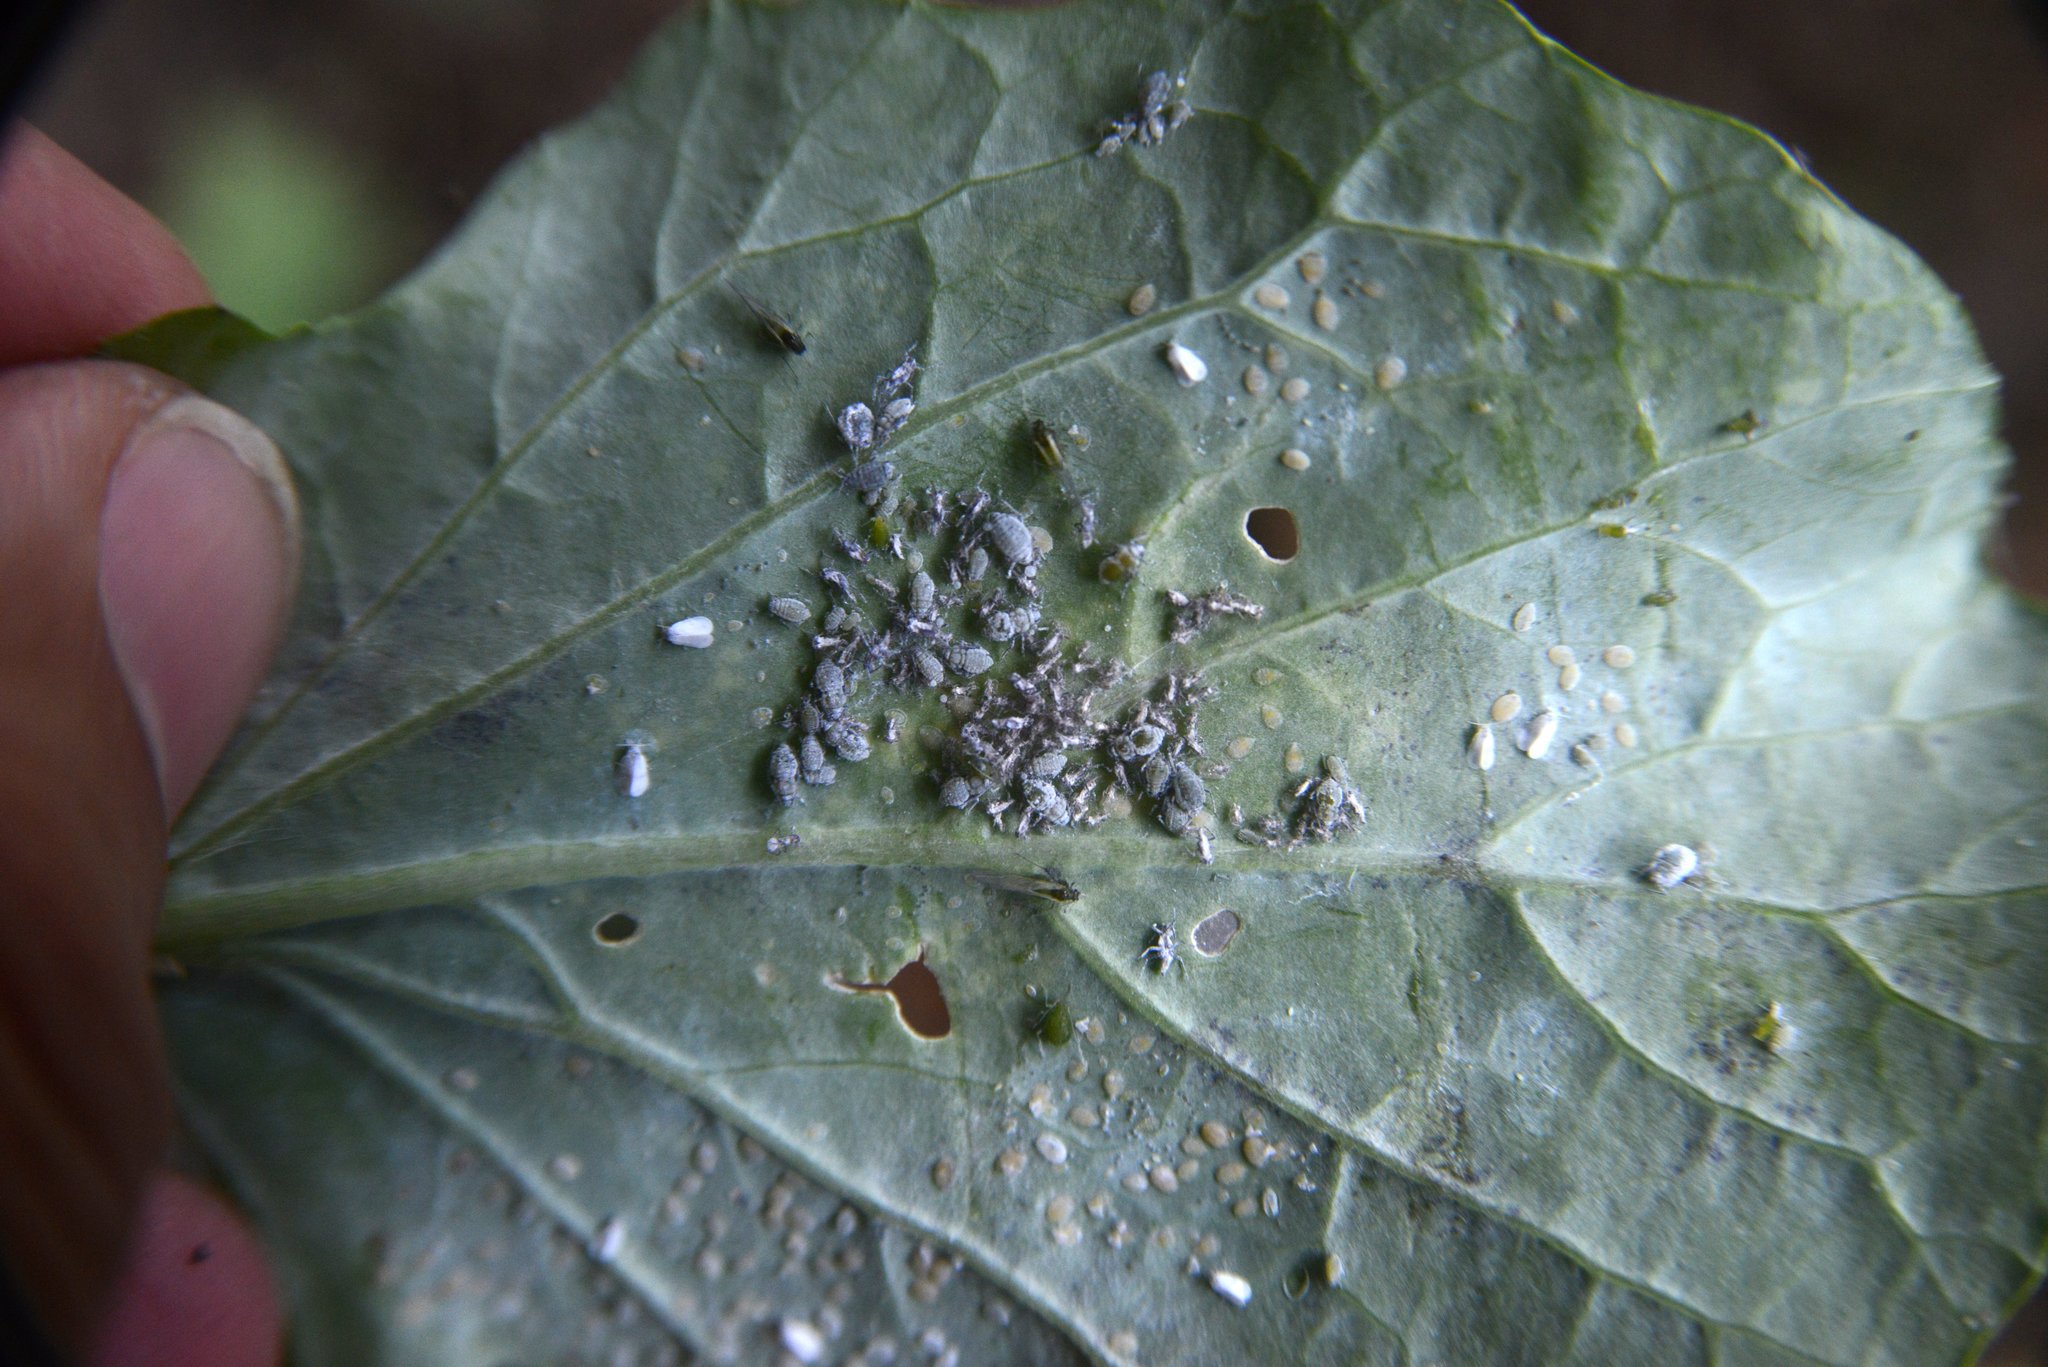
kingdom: Animalia
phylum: Arthropoda
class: Insecta
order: Hemiptera
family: Aphididae
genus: Brevicoryne
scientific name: Brevicoryne brassicae
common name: Cabbage aphid
